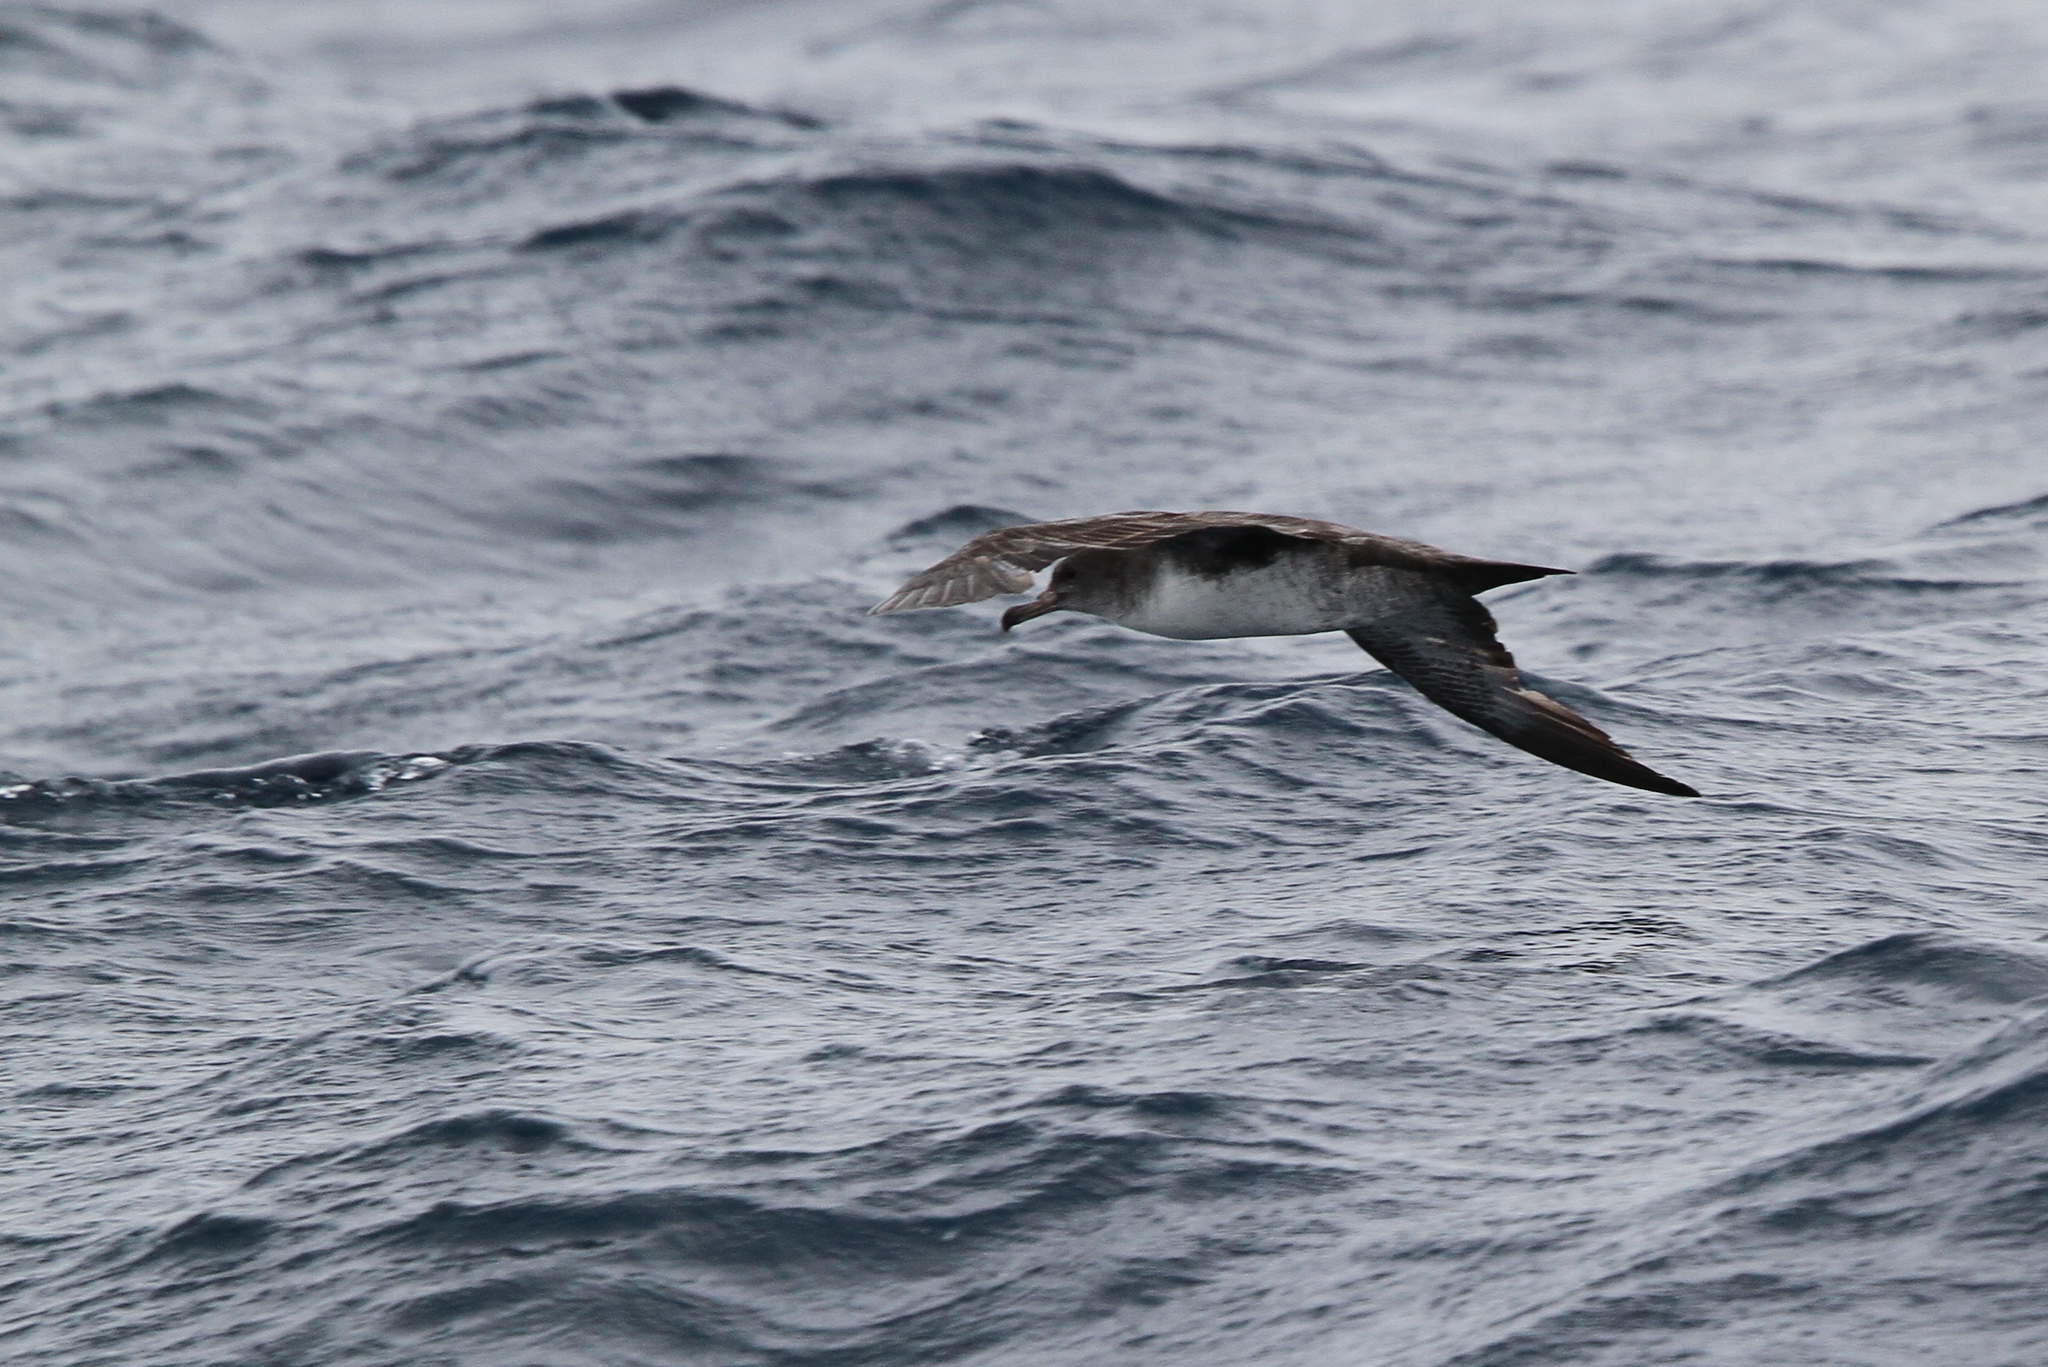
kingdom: Animalia
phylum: Chordata
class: Aves
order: Procellariiformes
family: Procellariidae
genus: Puffinus
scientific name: Puffinus creatopus
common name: Pink-footed shearwater
